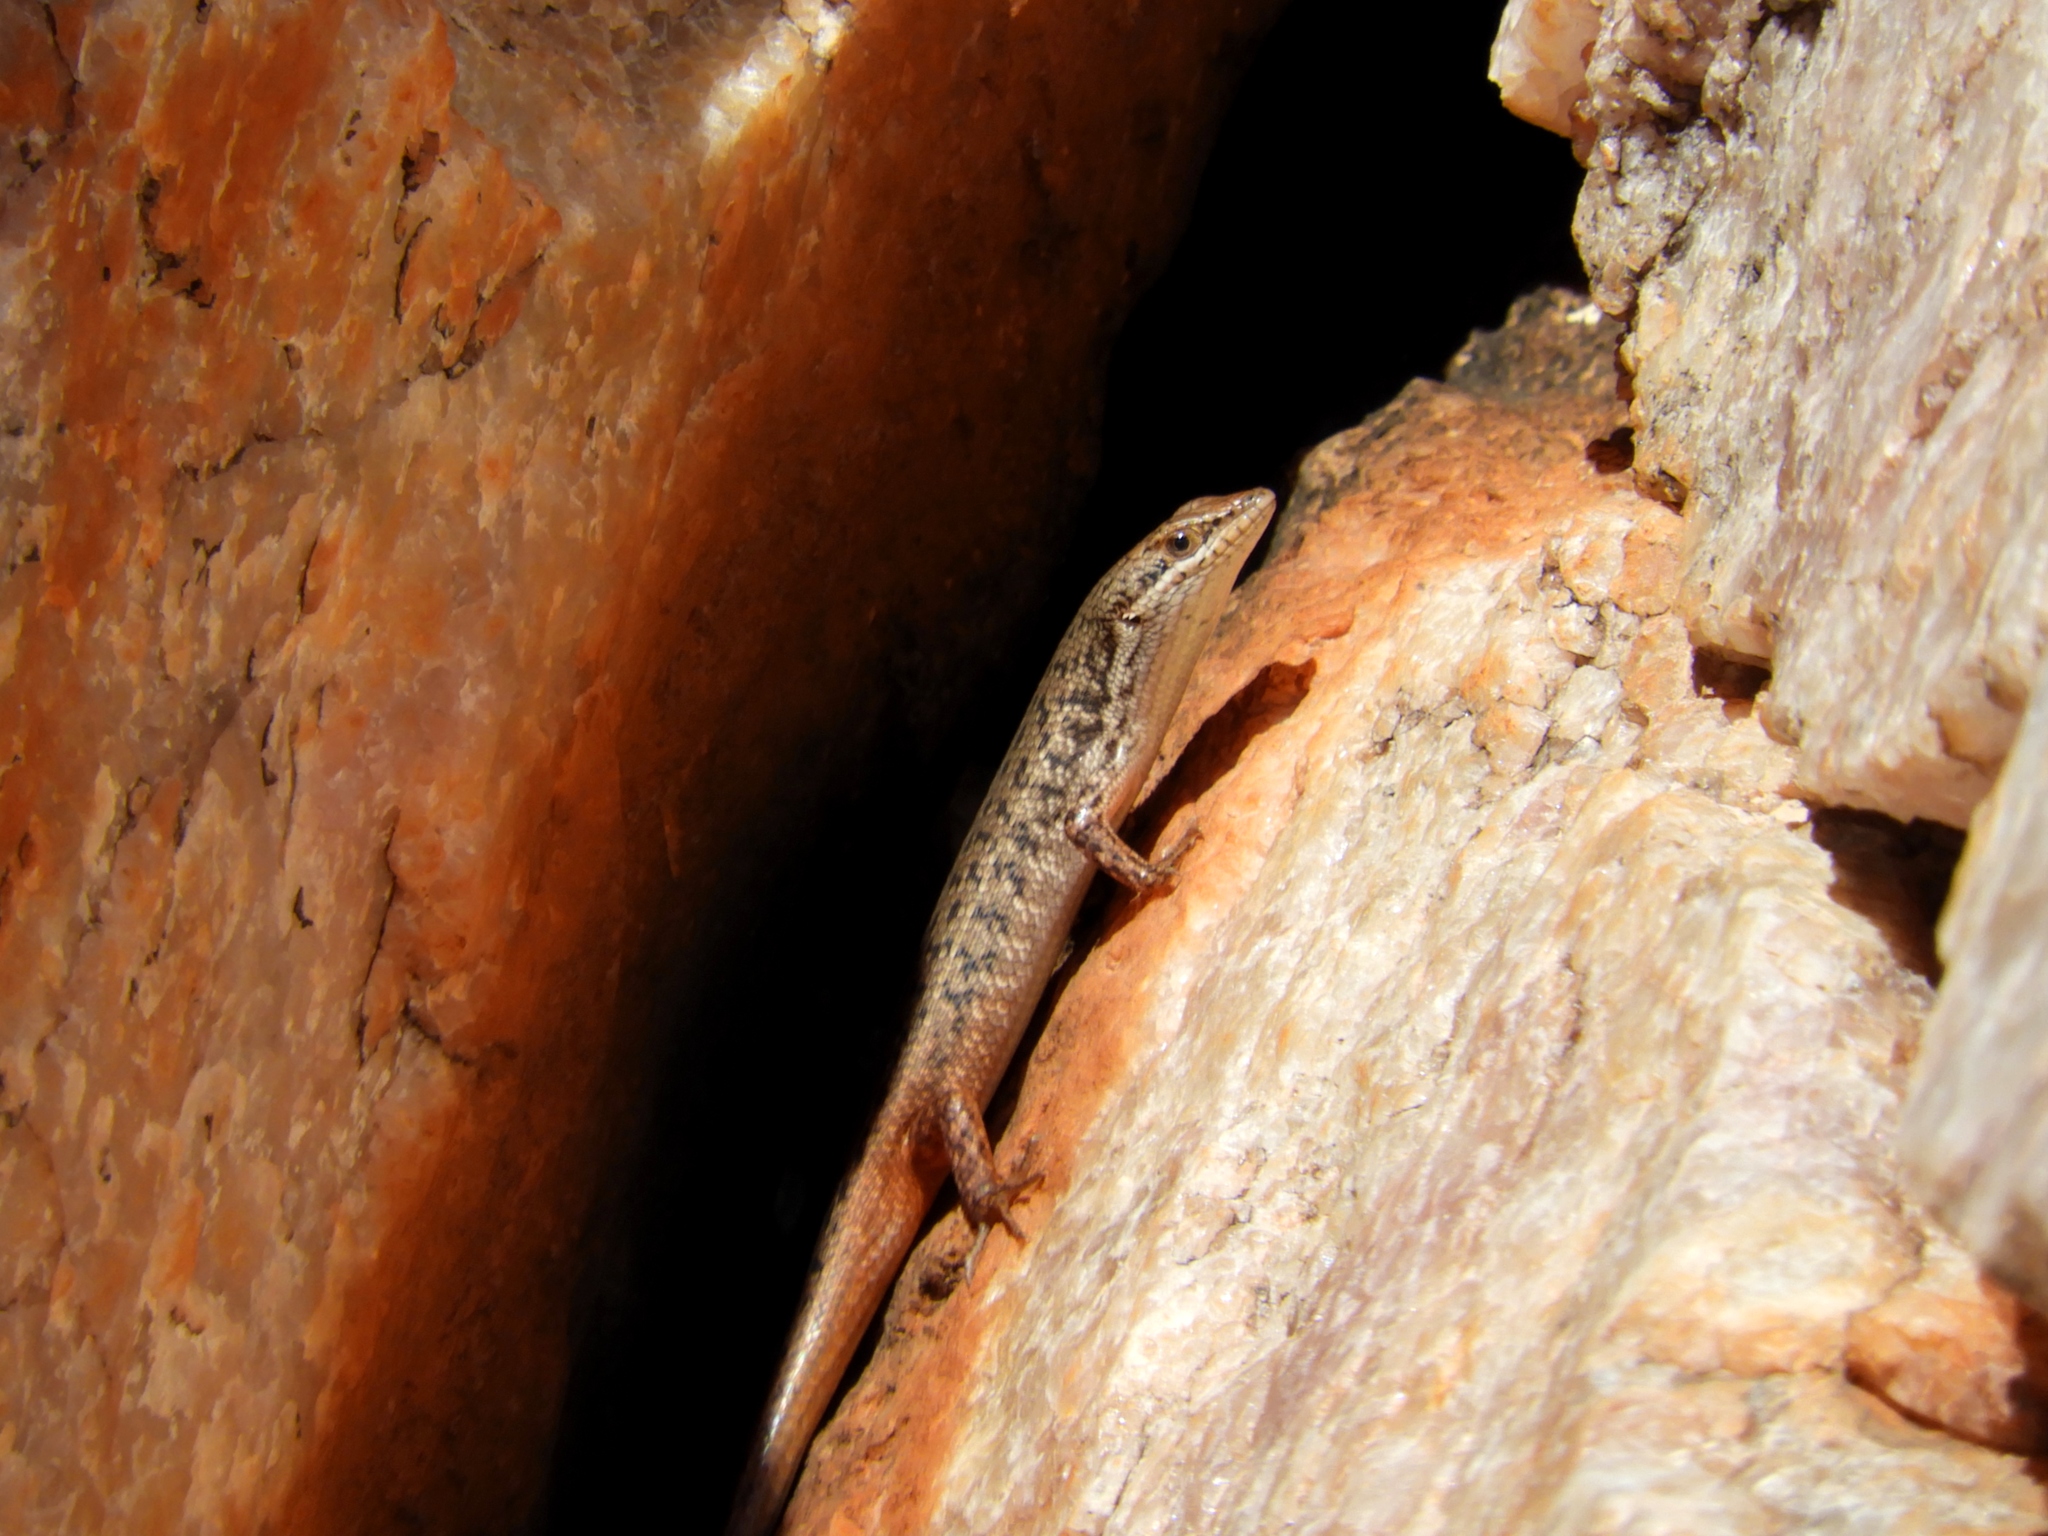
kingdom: Animalia
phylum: Chordata
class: Squamata
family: Scincidae
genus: Trachylepis
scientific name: Trachylepis variegata
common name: Variegated skink
